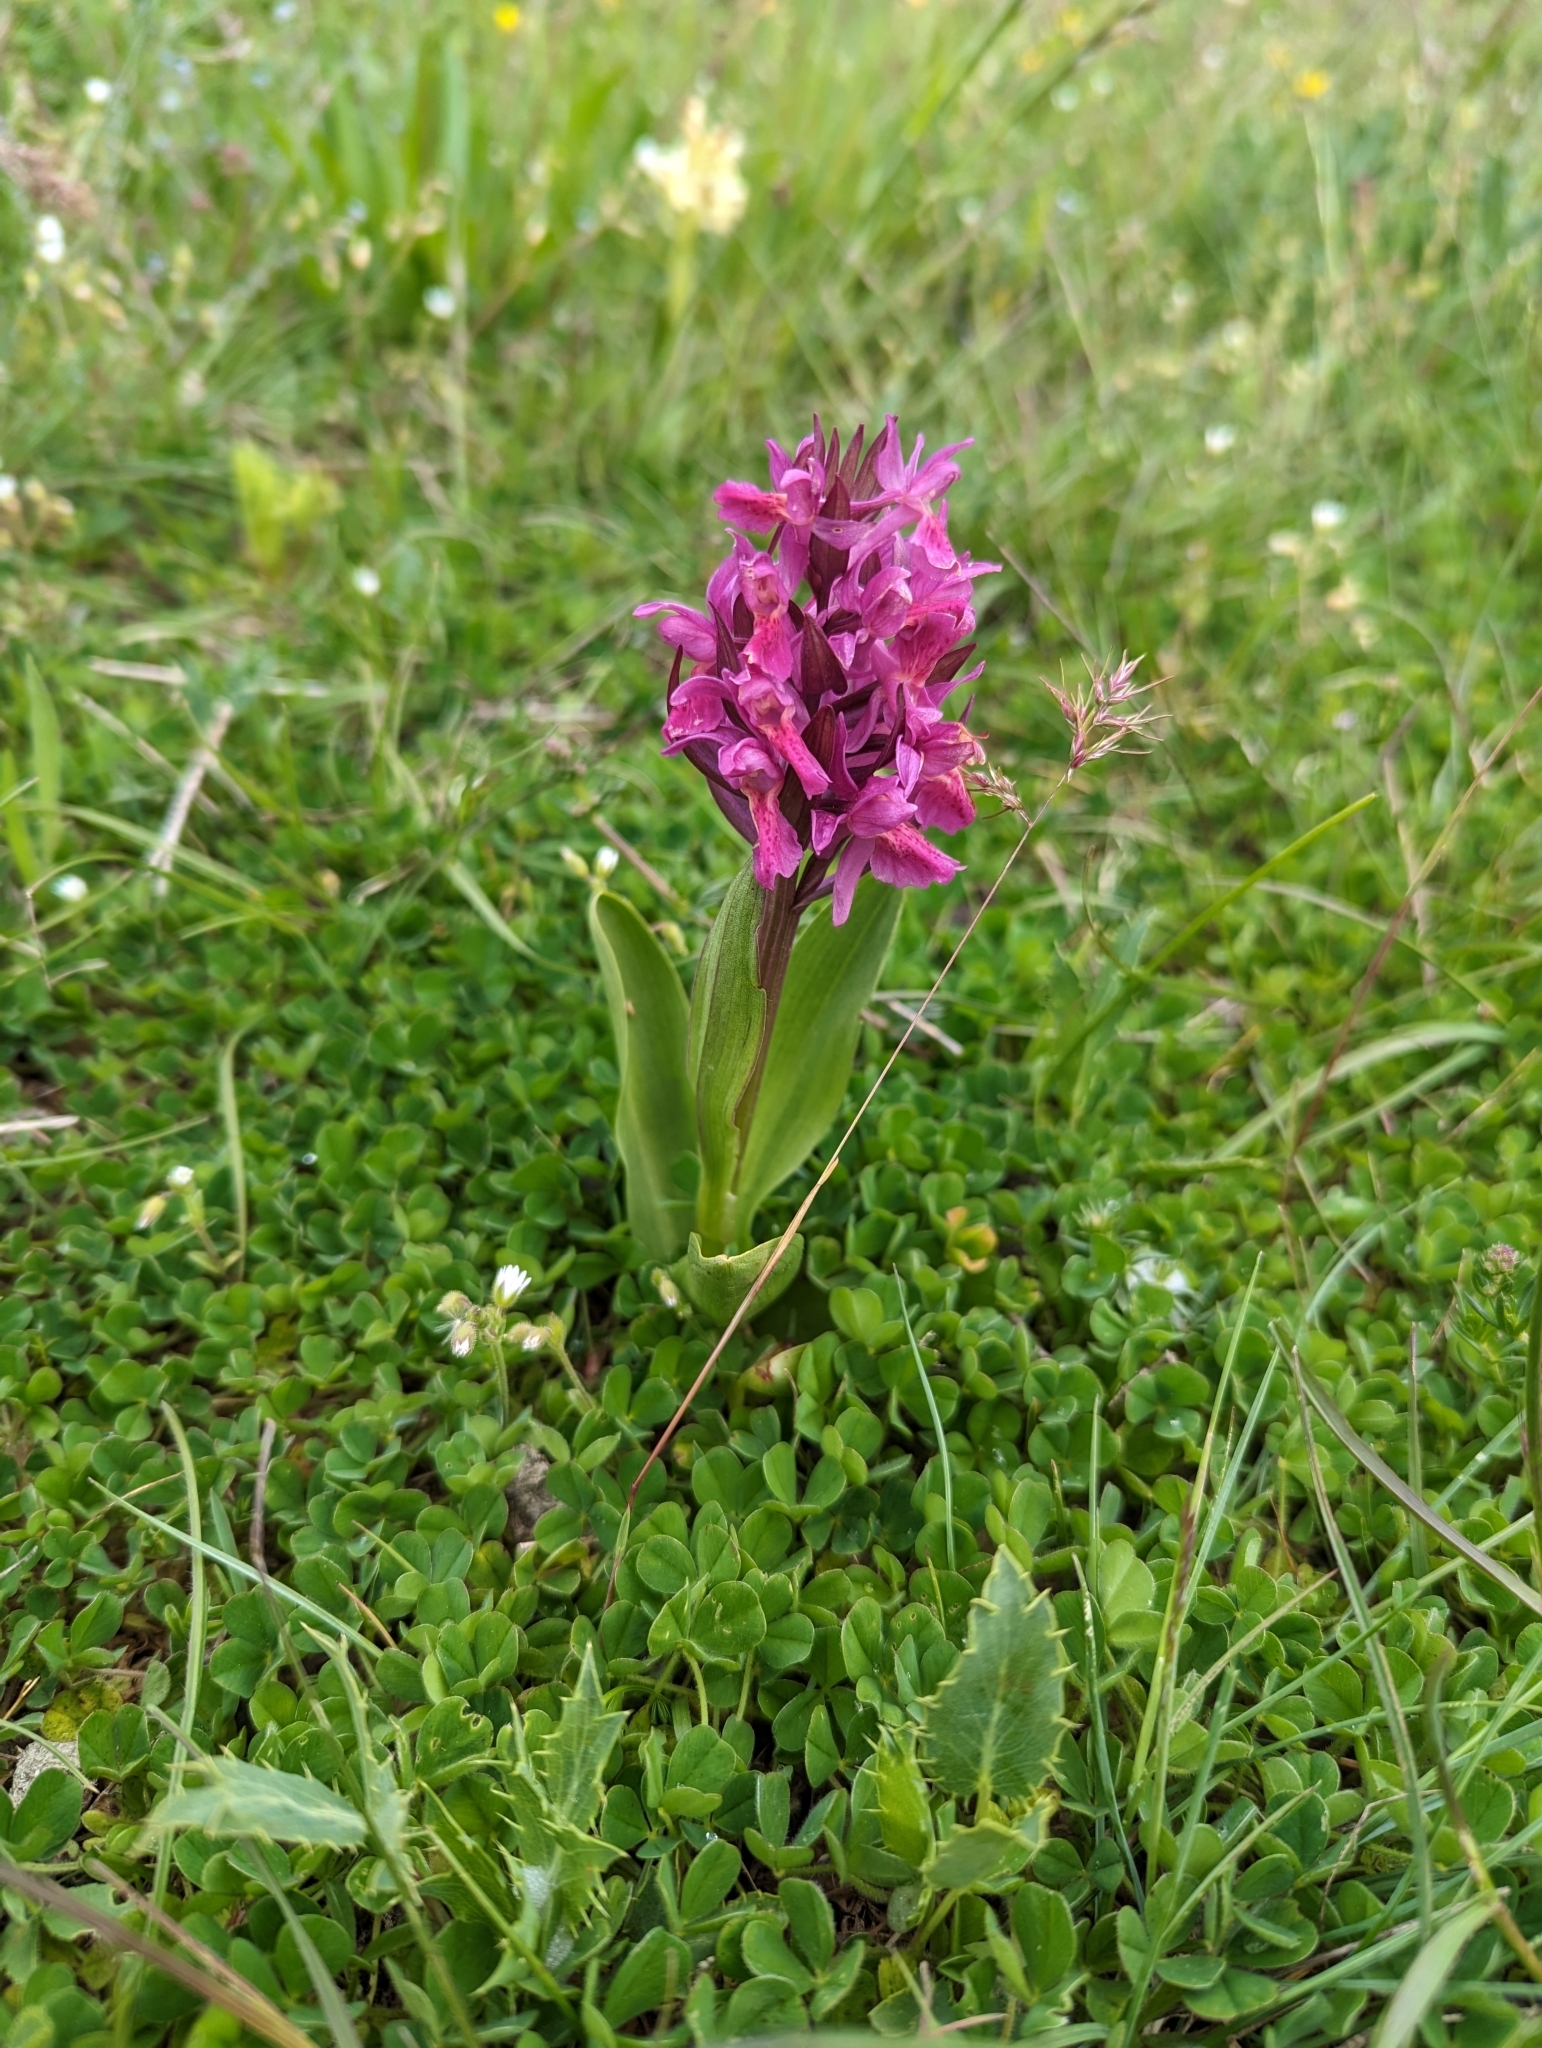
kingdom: Plantae
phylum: Tracheophyta
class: Liliopsida
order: Asparagales
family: Orchidaceae
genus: Dactylorhiza
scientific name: Dactylorhiza sambucina
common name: Elder-flowered orchid
